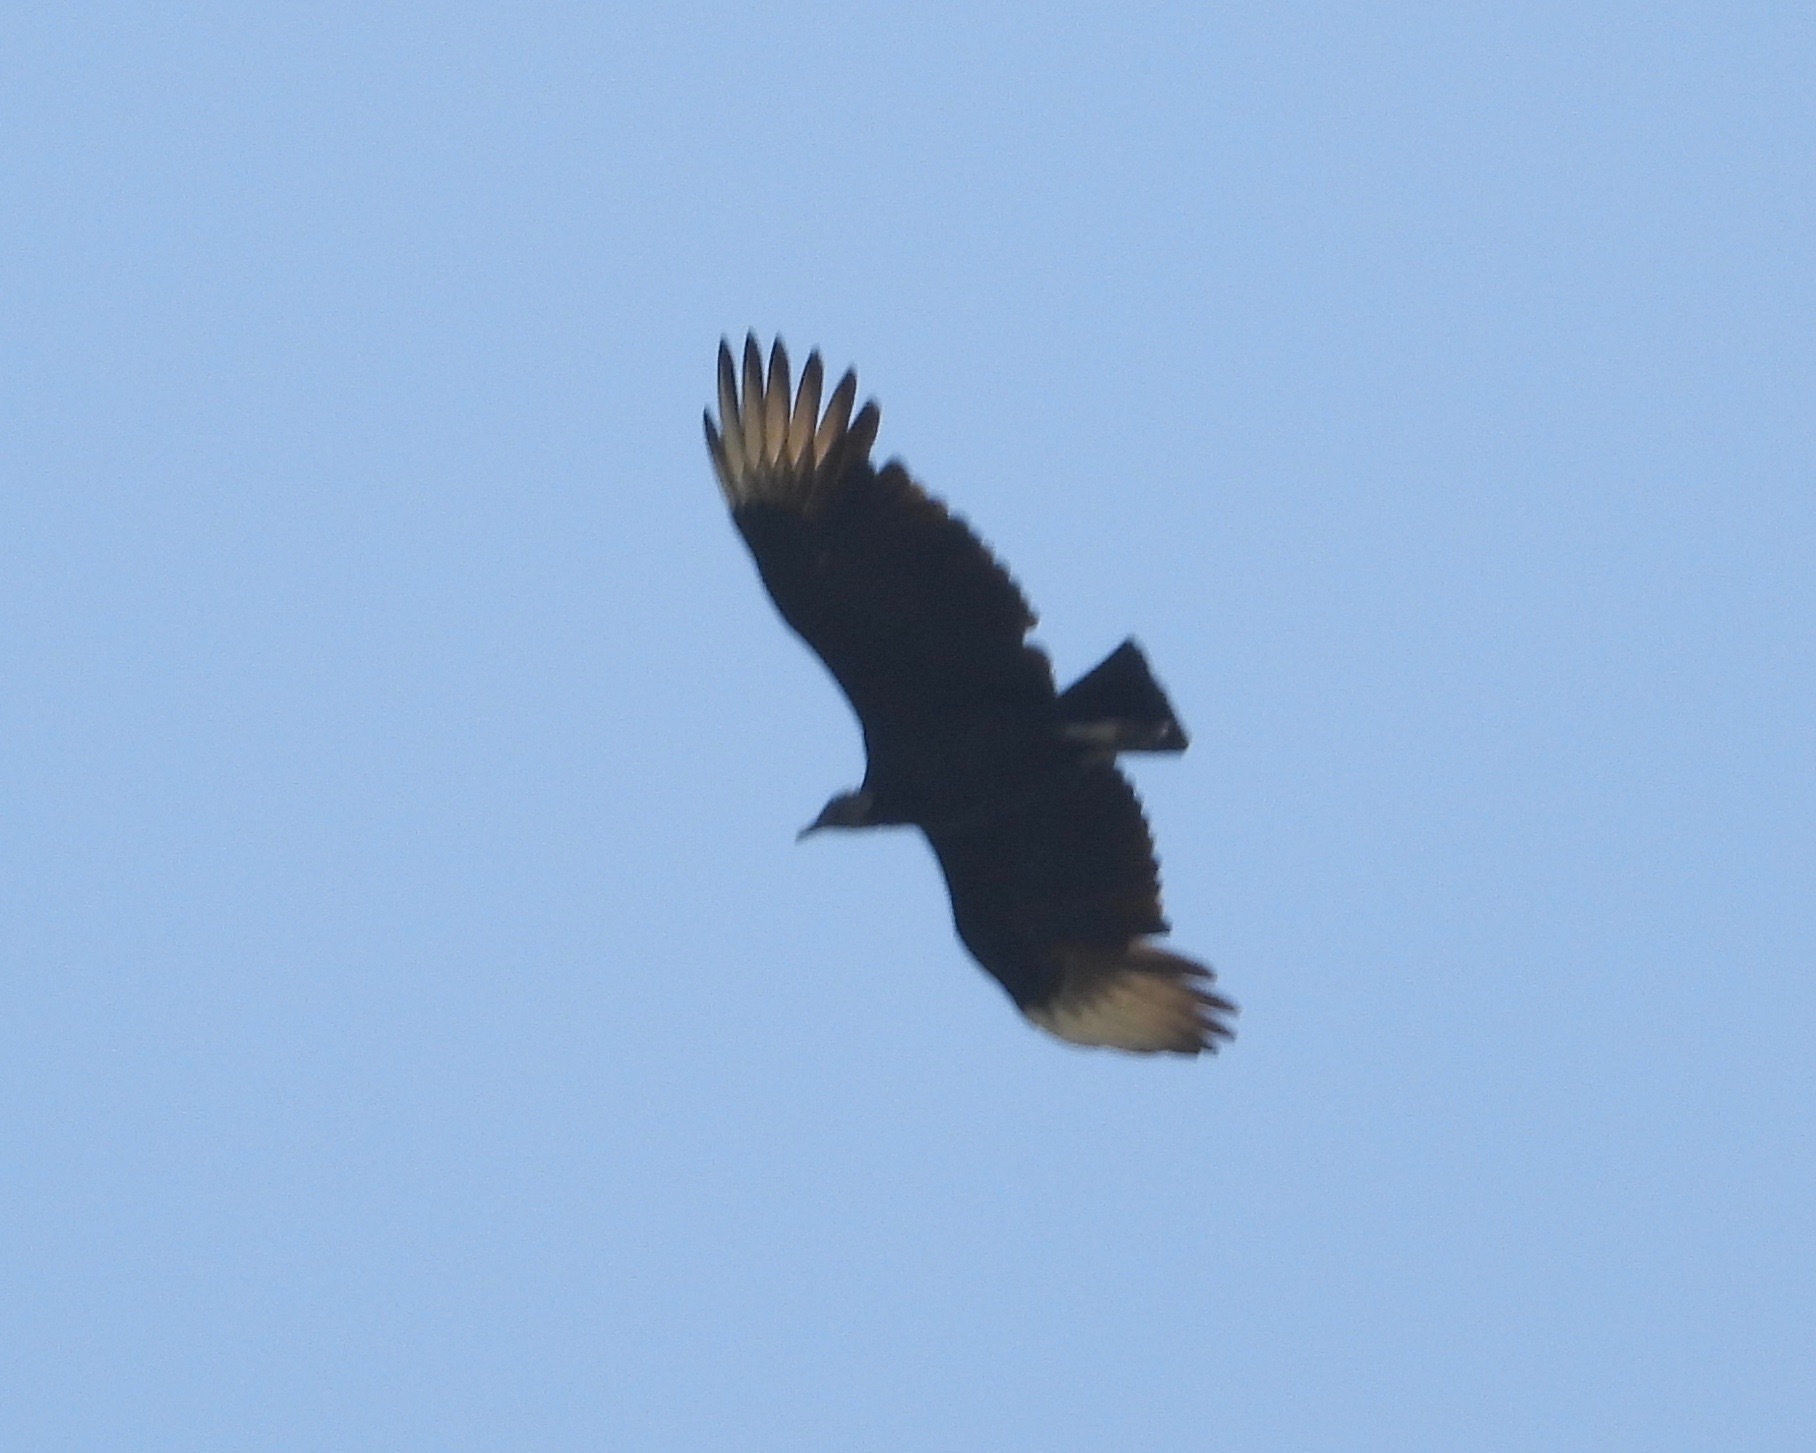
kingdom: Animalia
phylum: Chordata
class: Aves
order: Accipitriformes
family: Cathartidae
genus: Coragyps
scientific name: Coragyps atratus
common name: Black vulture
